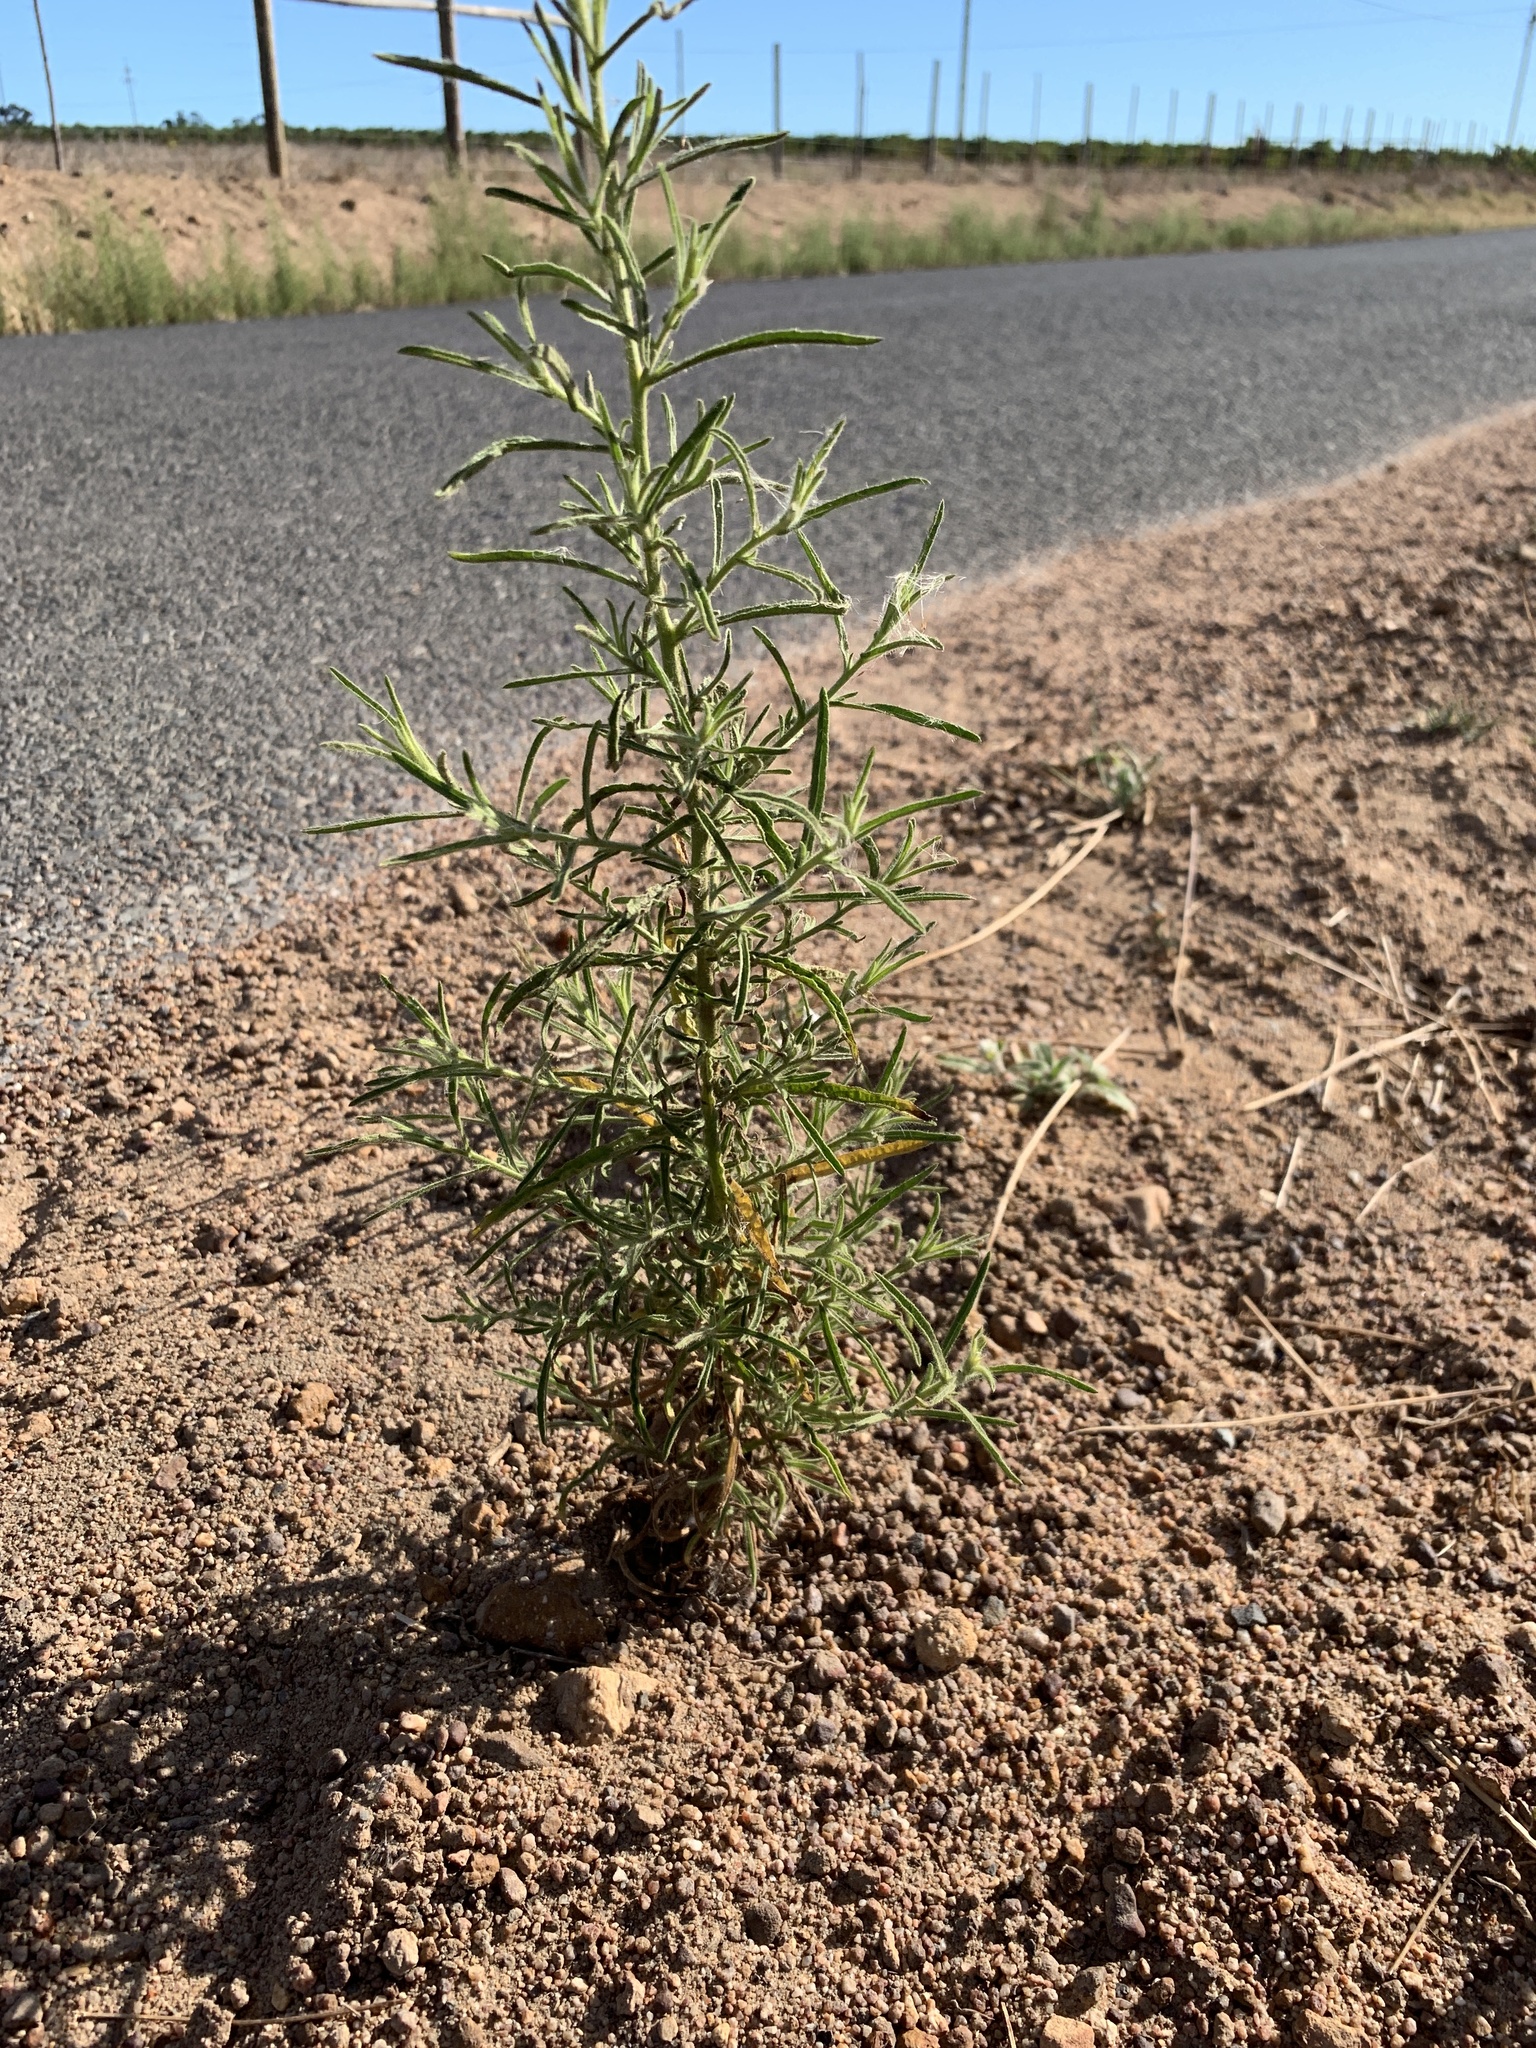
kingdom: Plantae
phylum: Tracheophyta
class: Magnoliopsida
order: Asterales
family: Asteraceae
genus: Dittrichia
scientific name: Dittrichia graveolens
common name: Stinking fleabane
